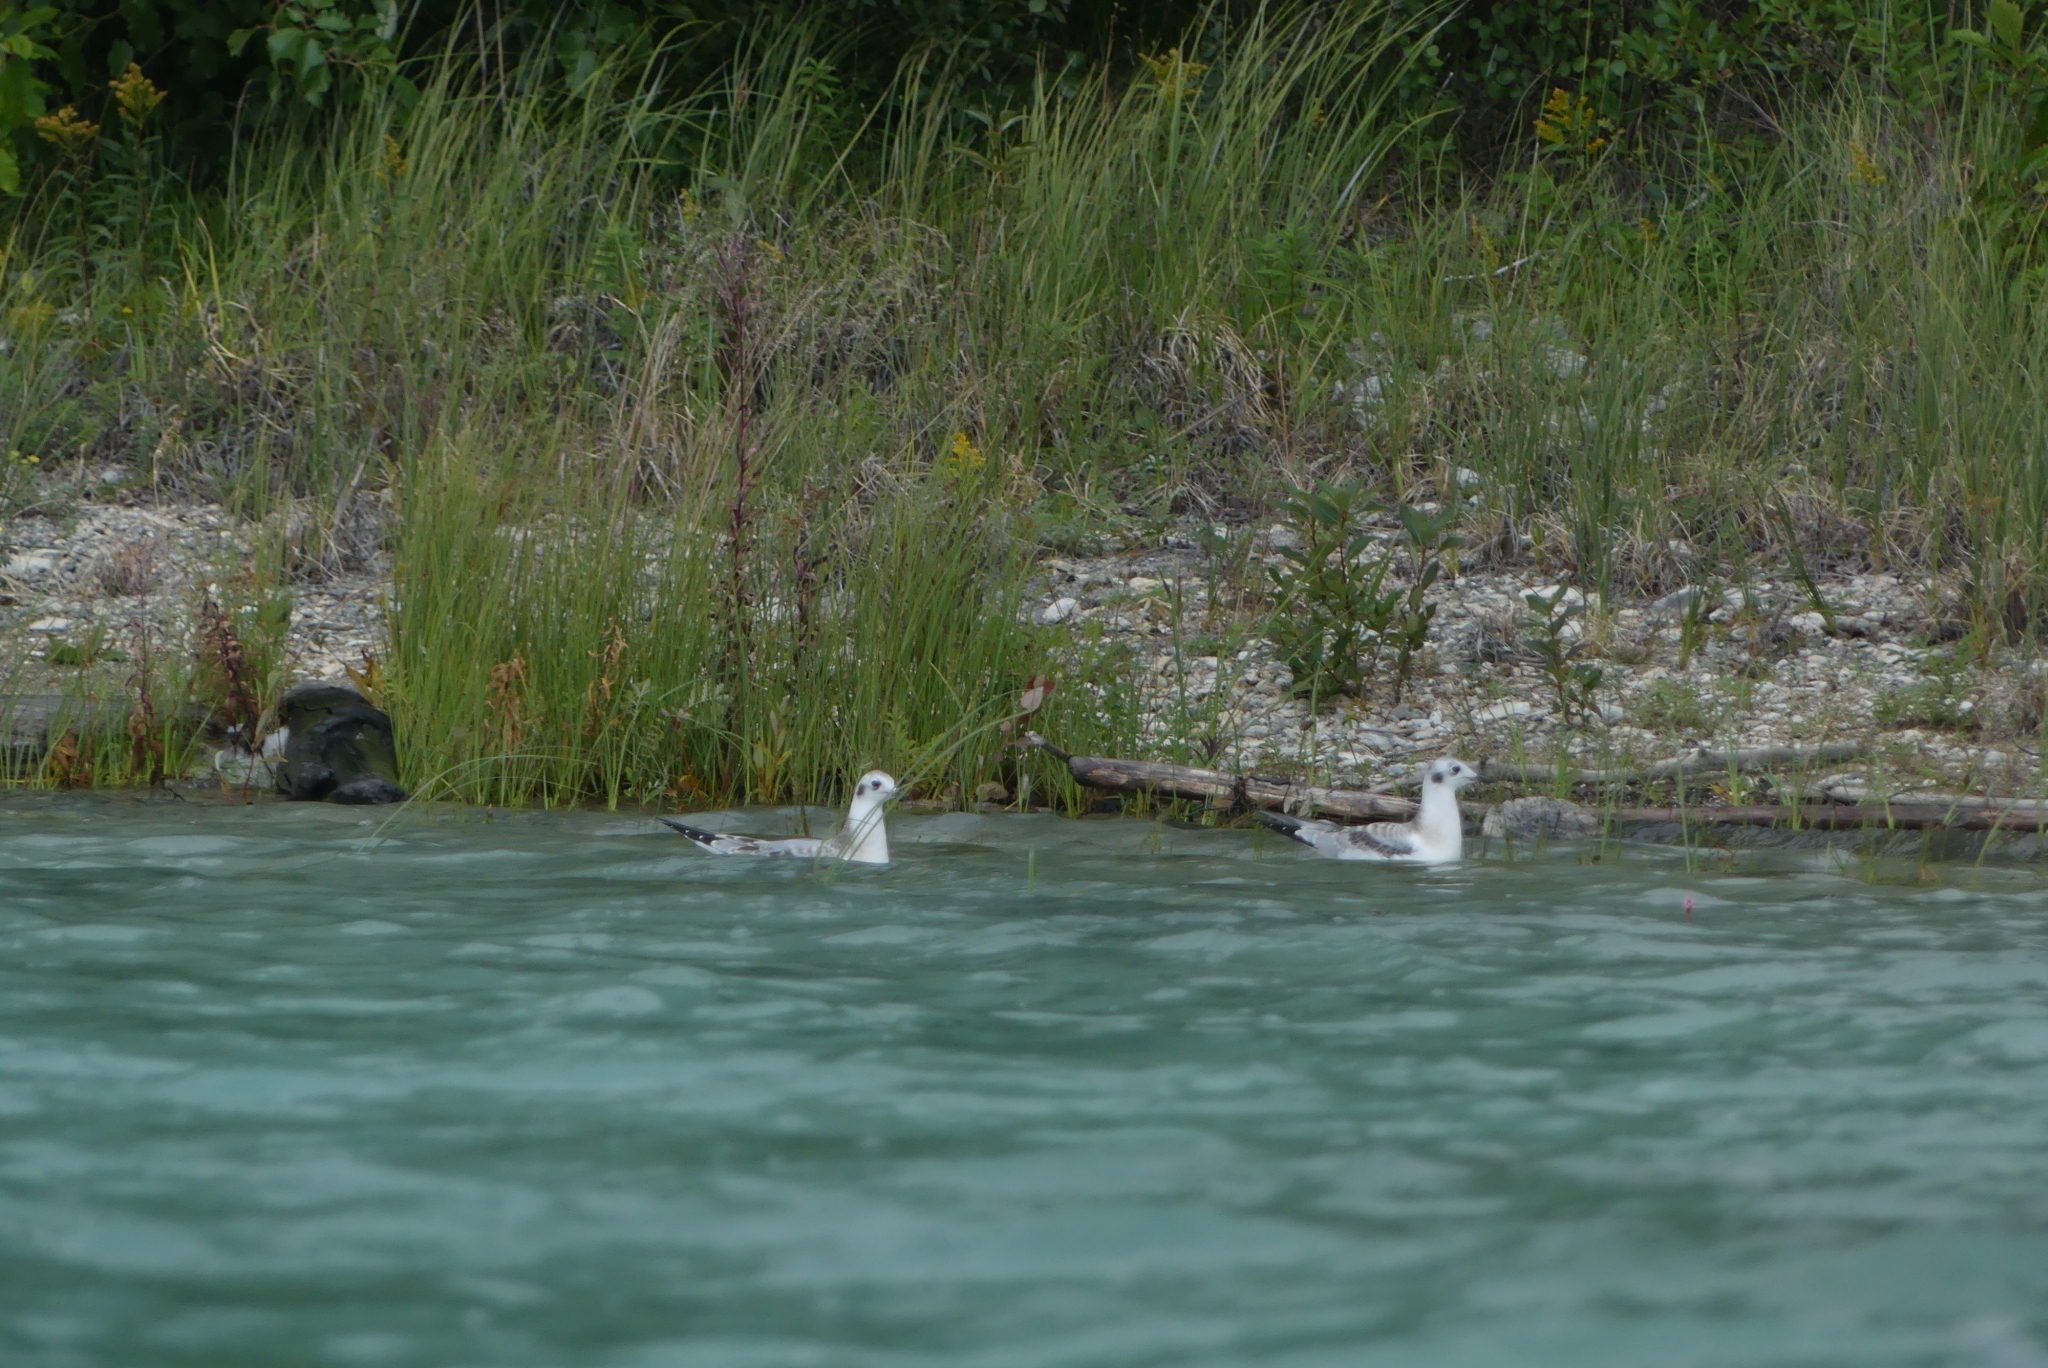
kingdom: Animalia
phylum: Chordata
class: Aves
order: Charadriiformes
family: Laridae
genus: Chroicocephalus
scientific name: Chroicocephalus philadelphia
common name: Bonaparte's gull
